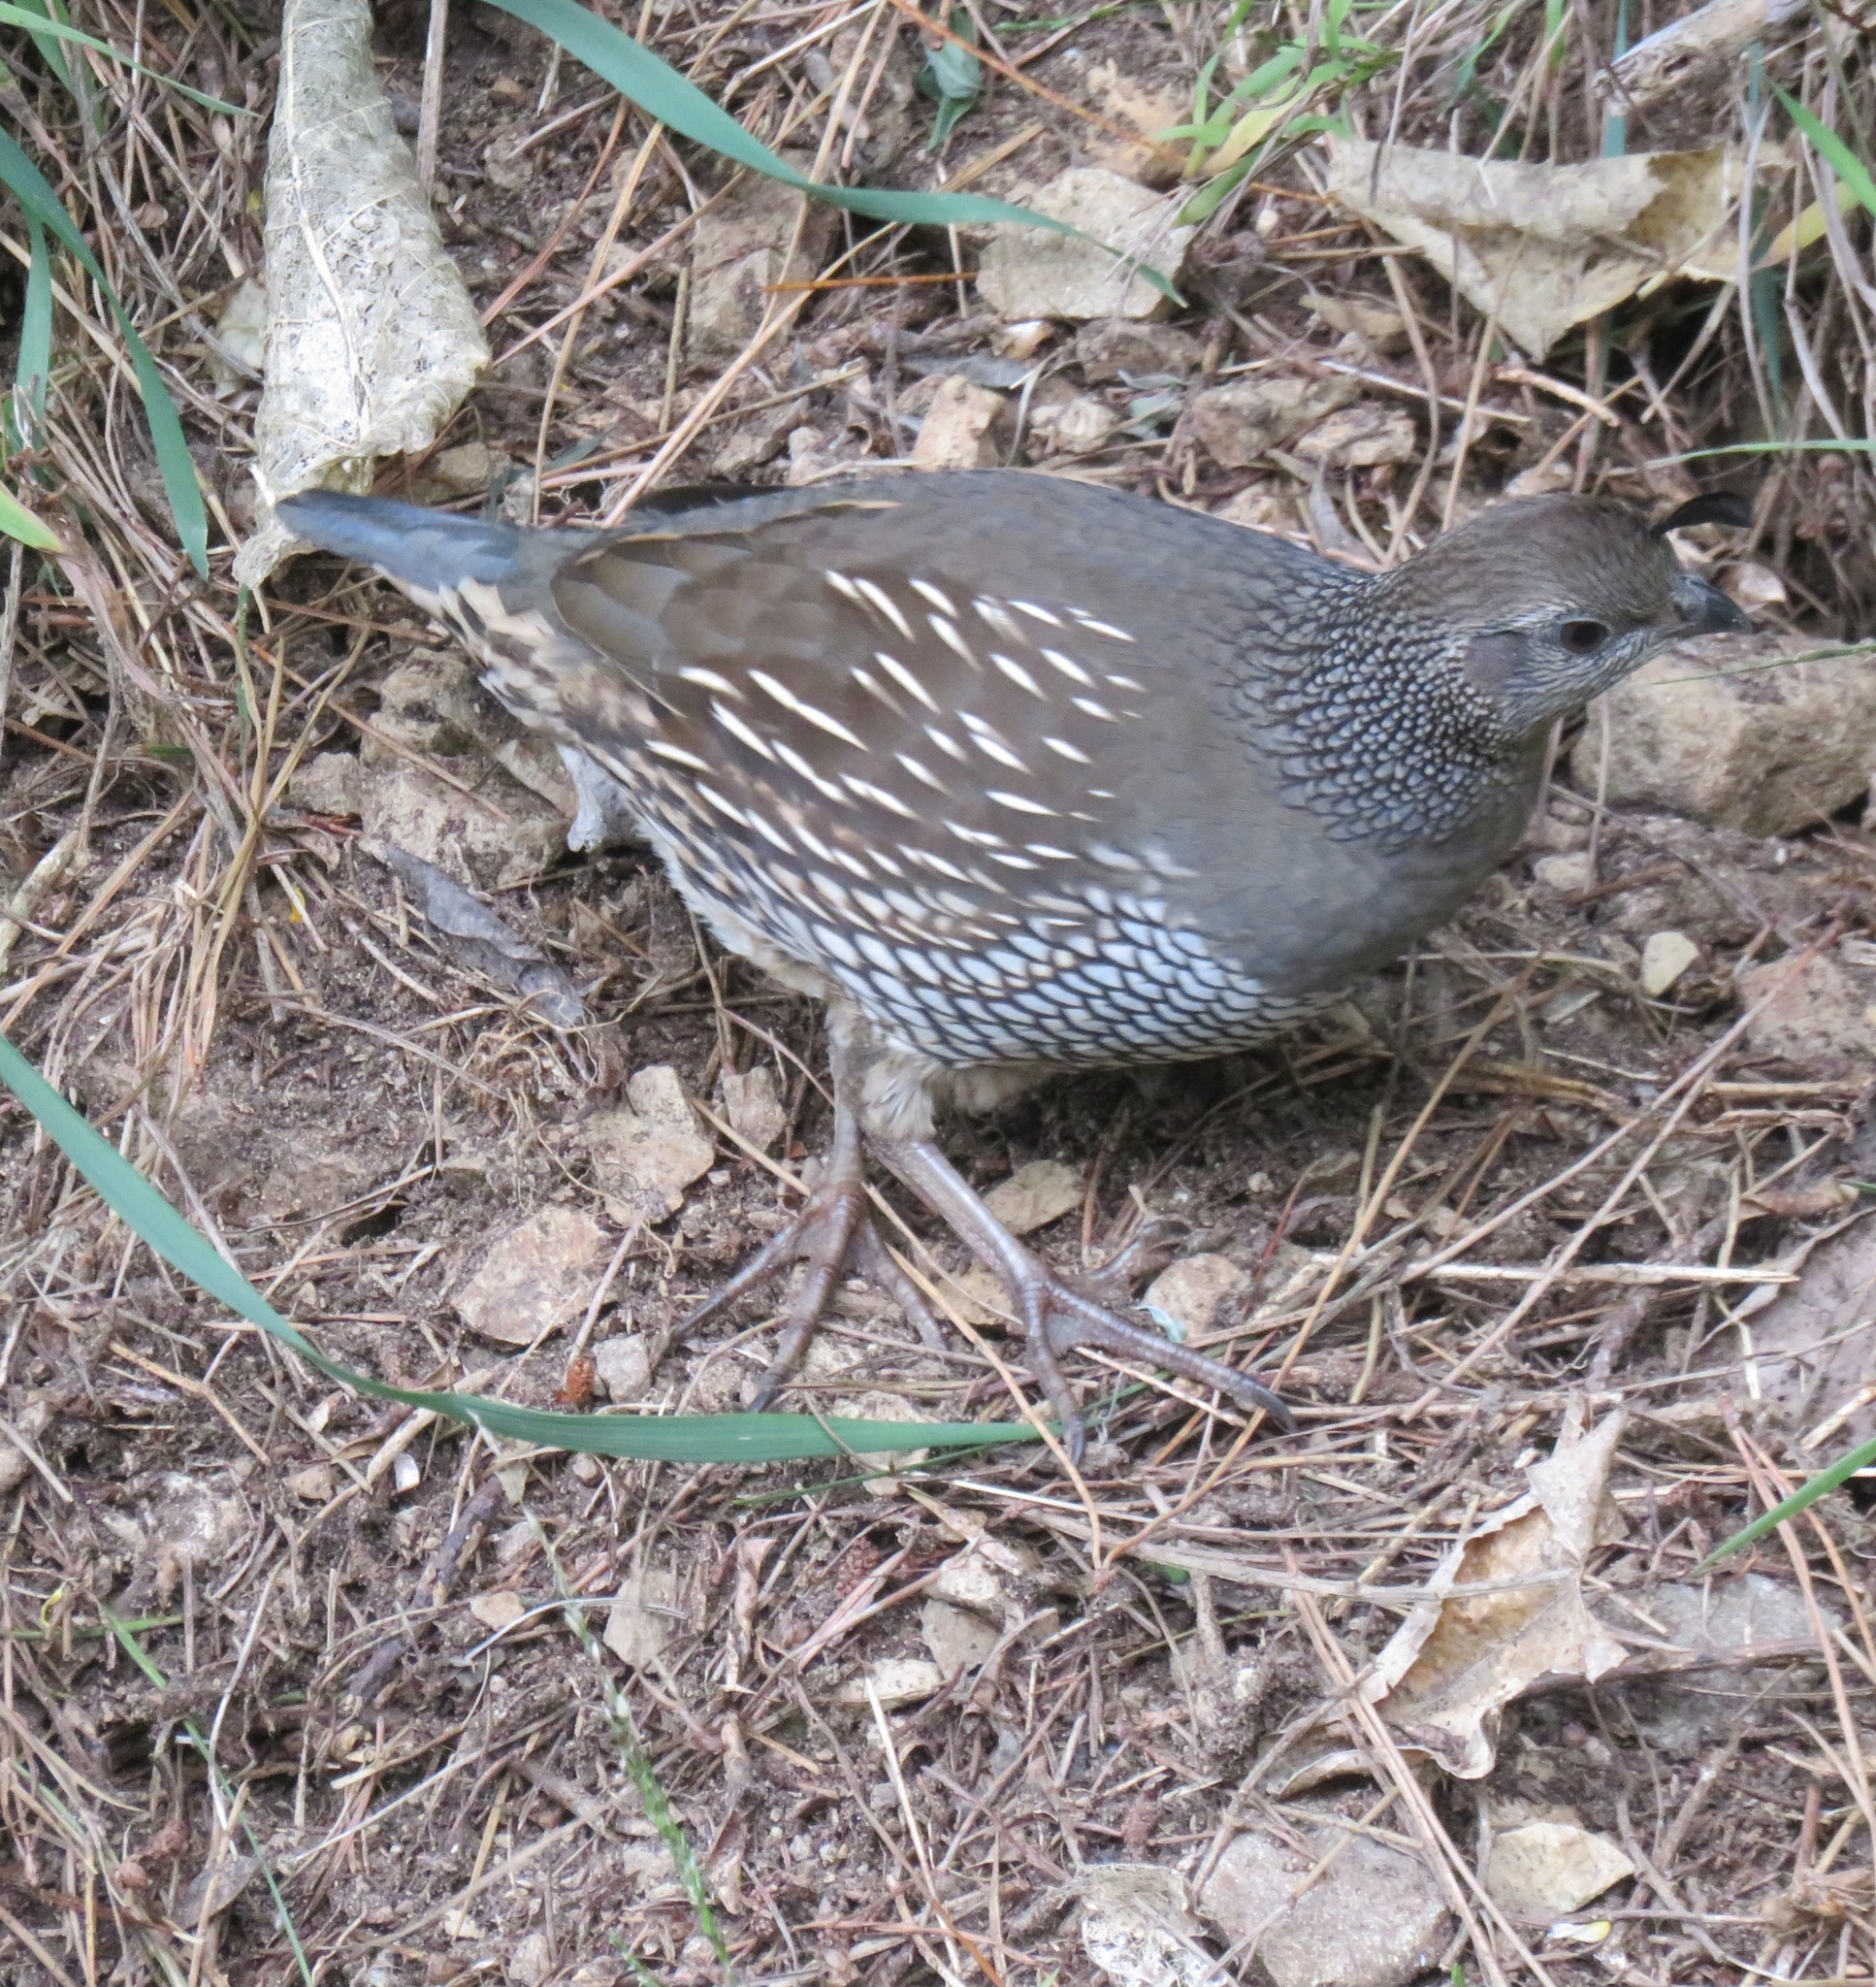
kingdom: Animalia
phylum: Chordata
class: Aves
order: Galliformes
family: Odontophoridae
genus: Callipepla
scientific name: Callipepla californica
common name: California quail
